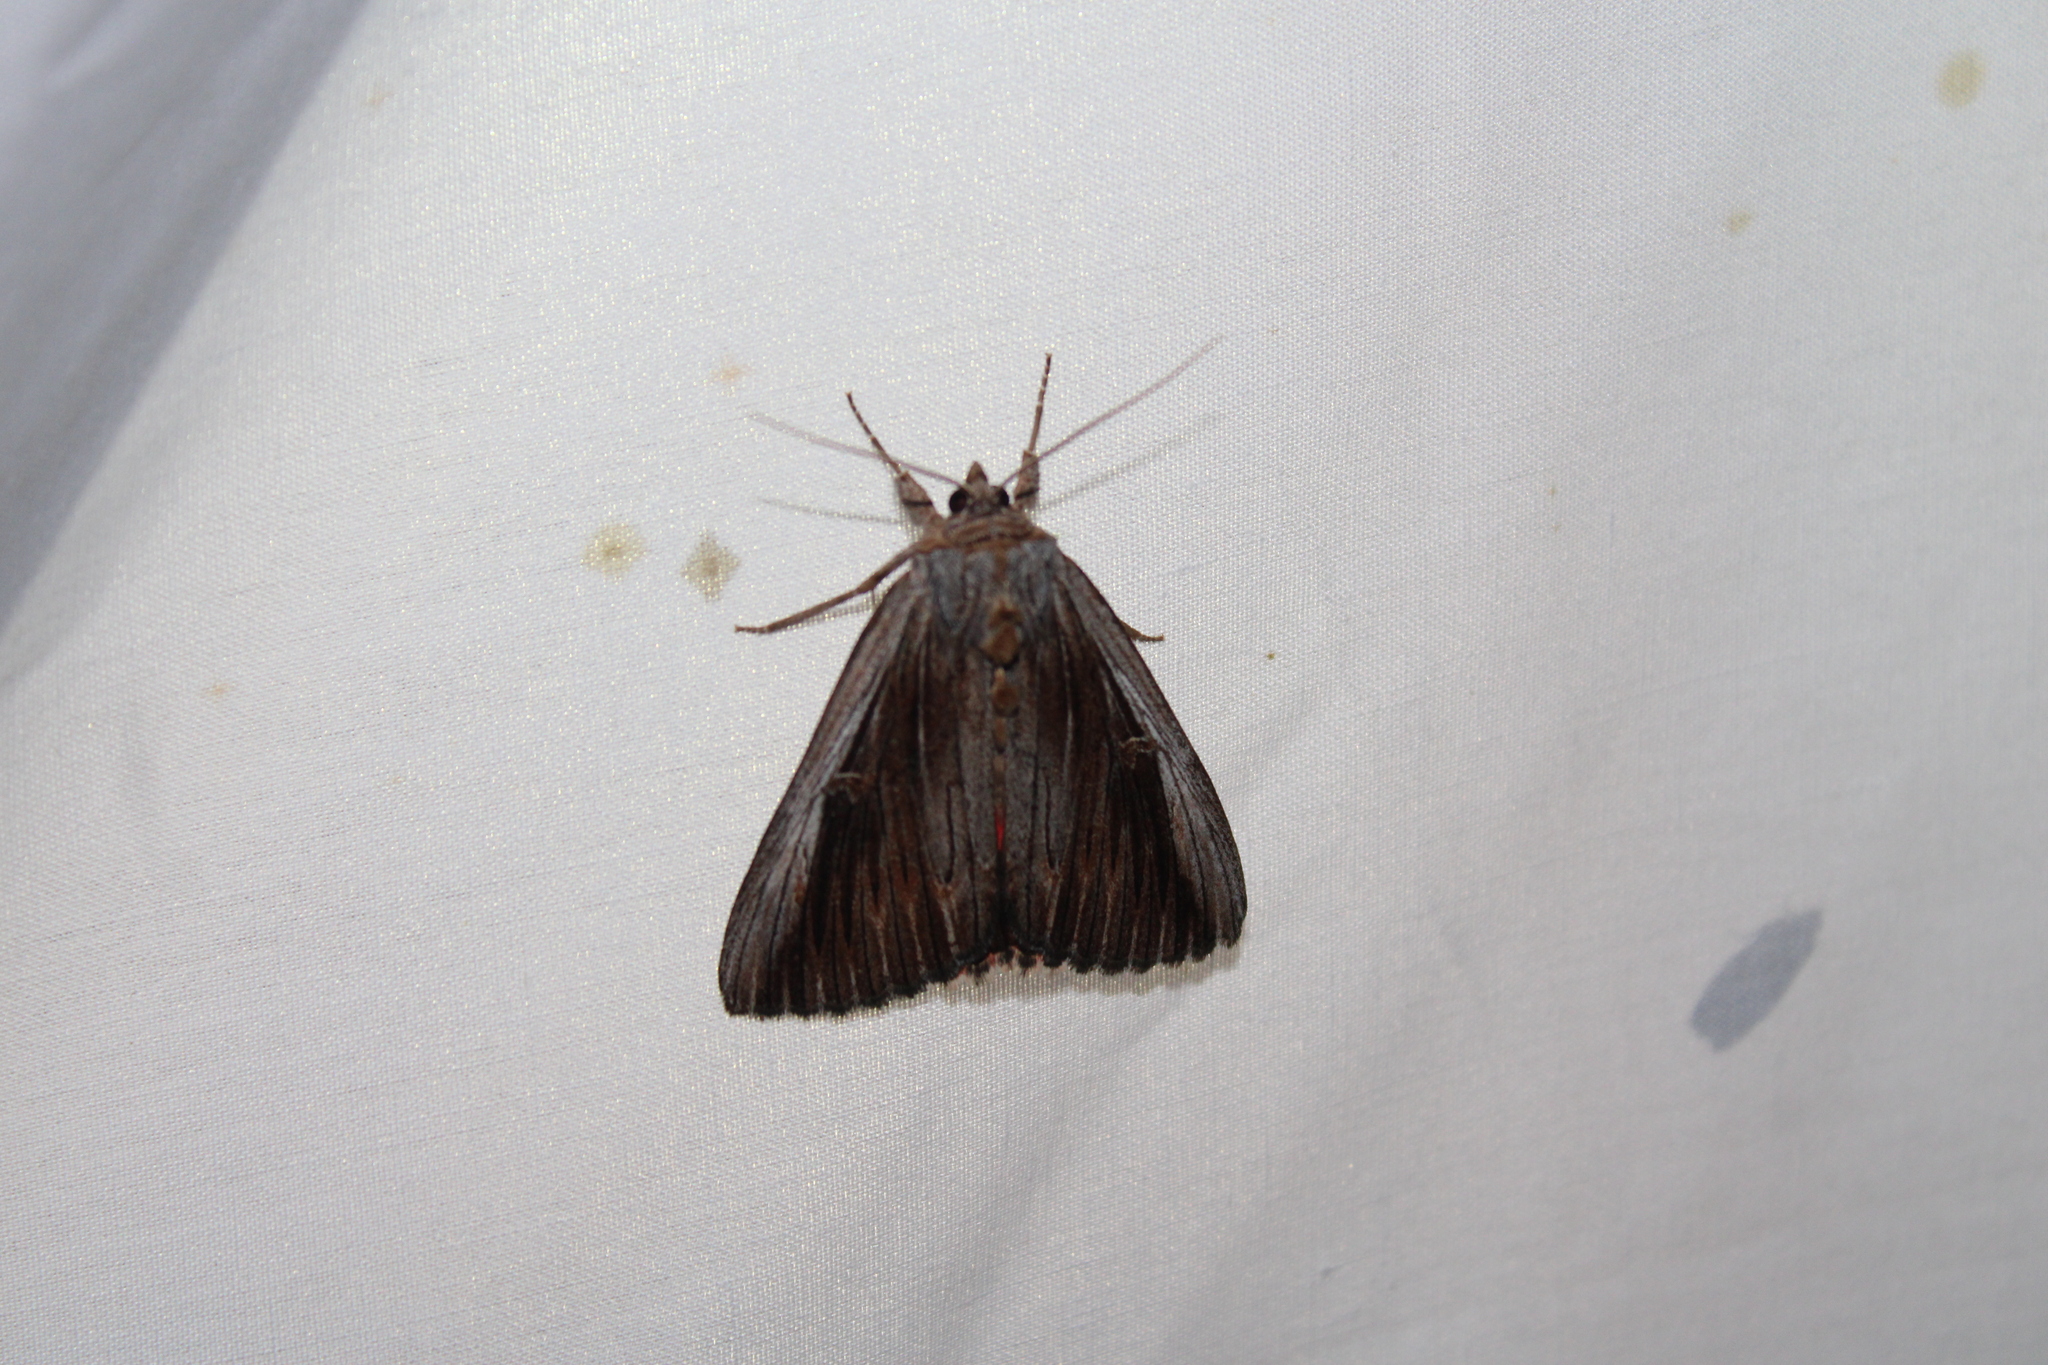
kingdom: Animalia
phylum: Arthropoda
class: Insecta
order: Lepidoptera
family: Erebidae
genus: Catocala
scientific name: Catocala herodias
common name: Pine barrens underwing
